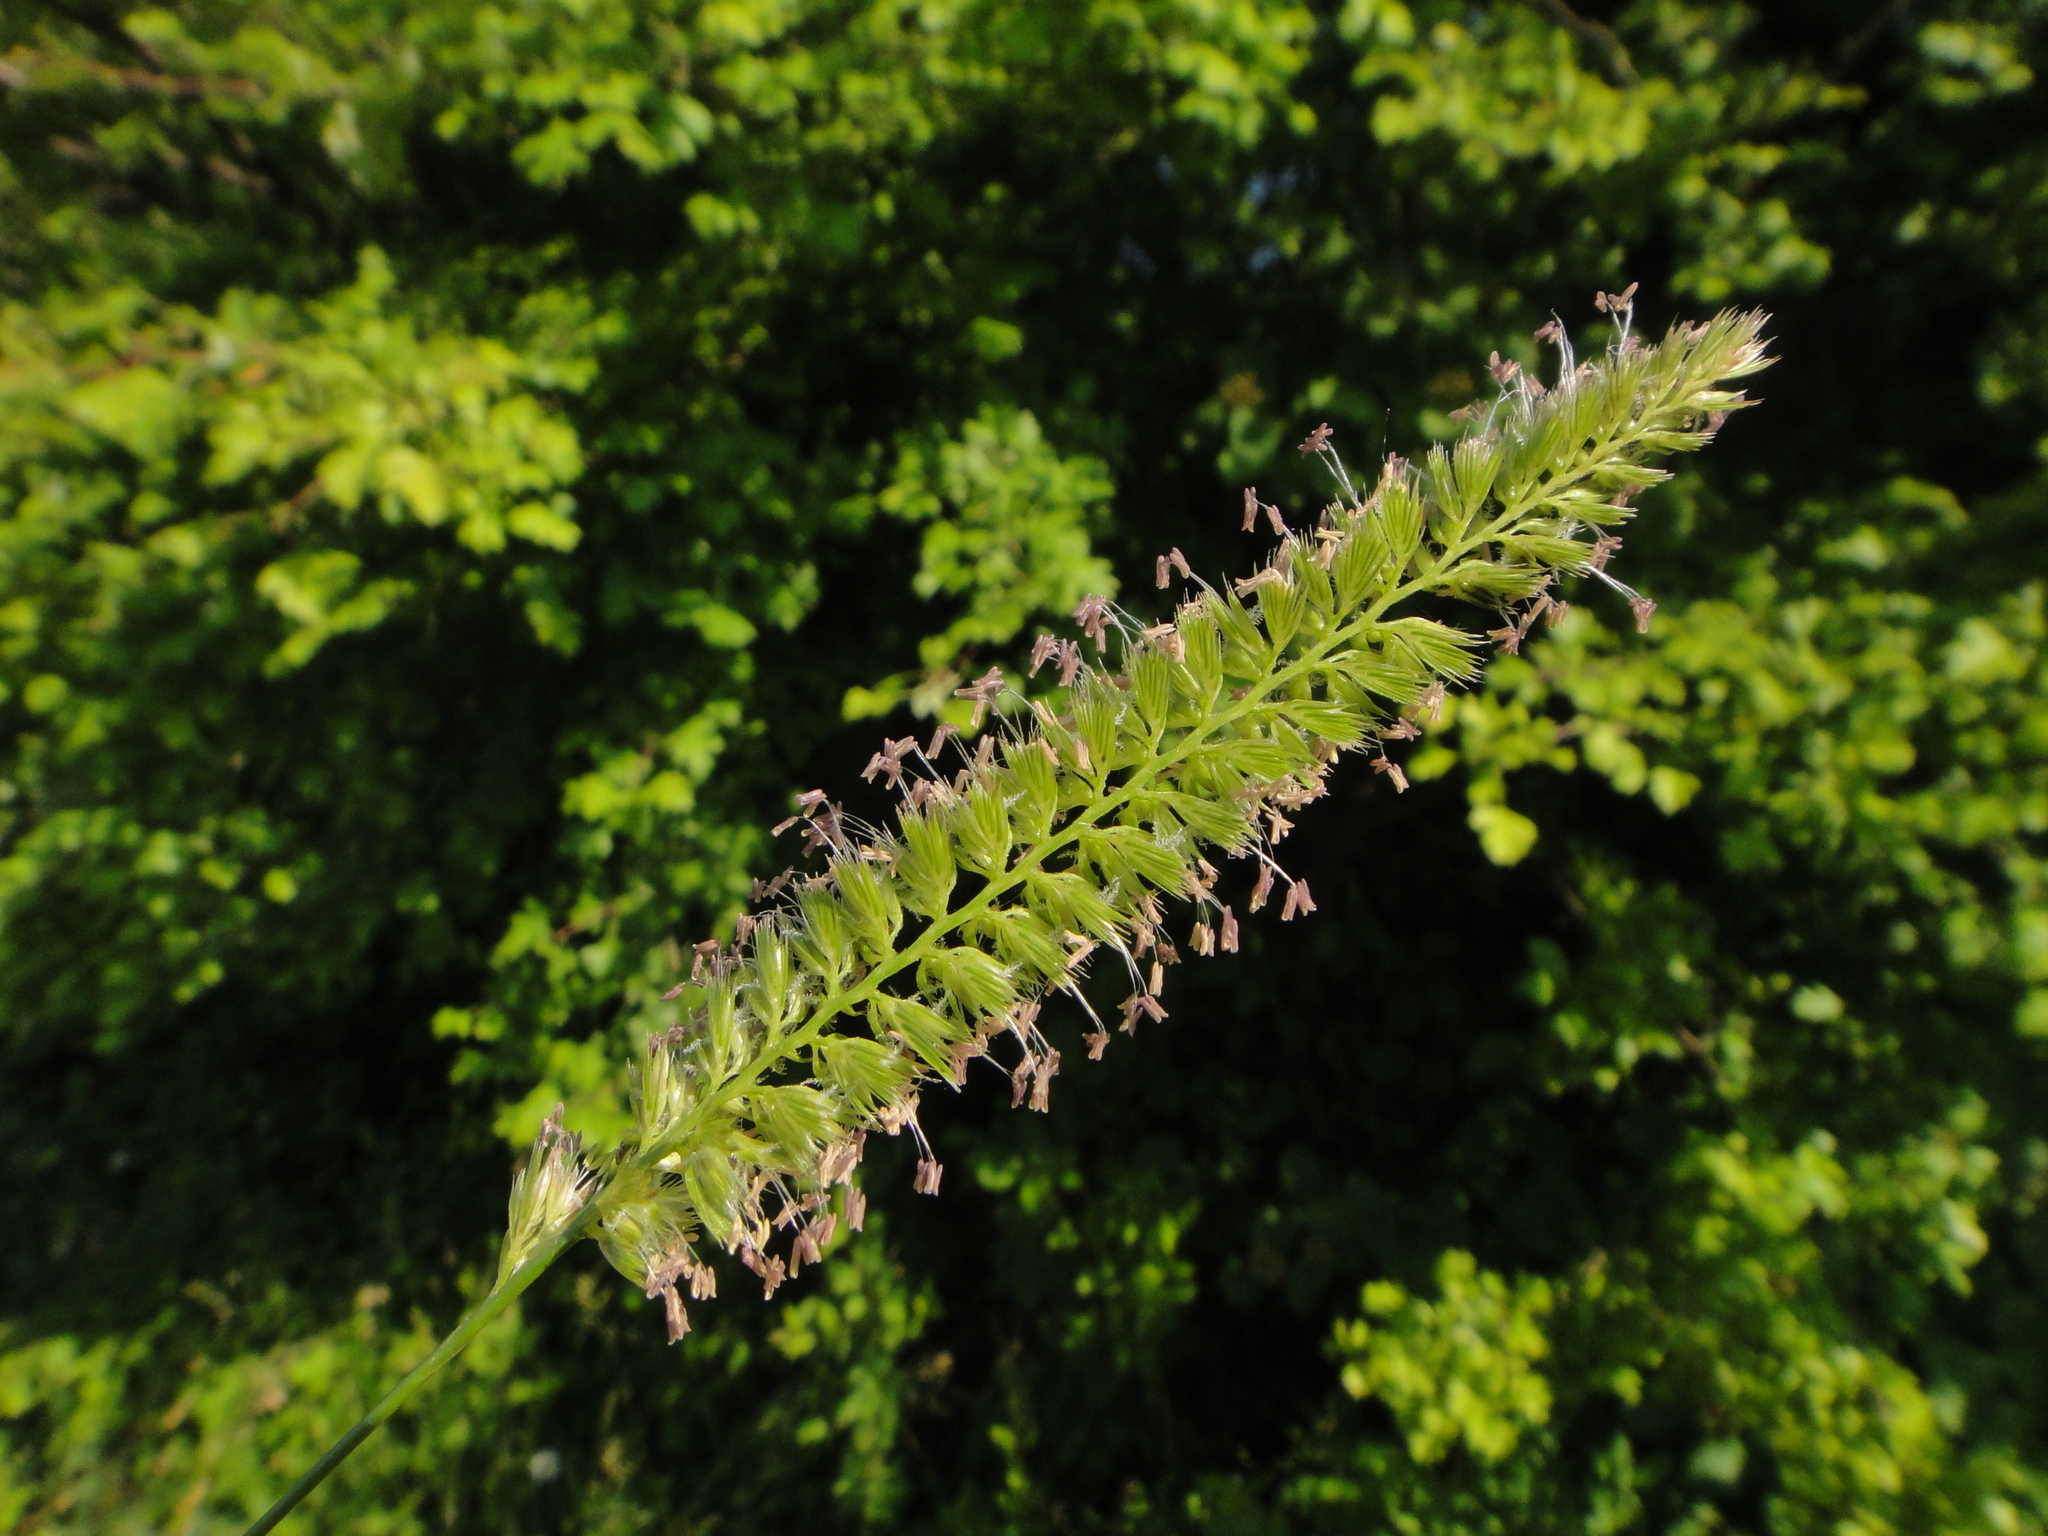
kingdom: Plantae
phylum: Tracheophyta
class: Liliopsida
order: Poales
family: Poaceae
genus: Cynosurus
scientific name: Cynosurus cristatus
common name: Crested dog's-tail
